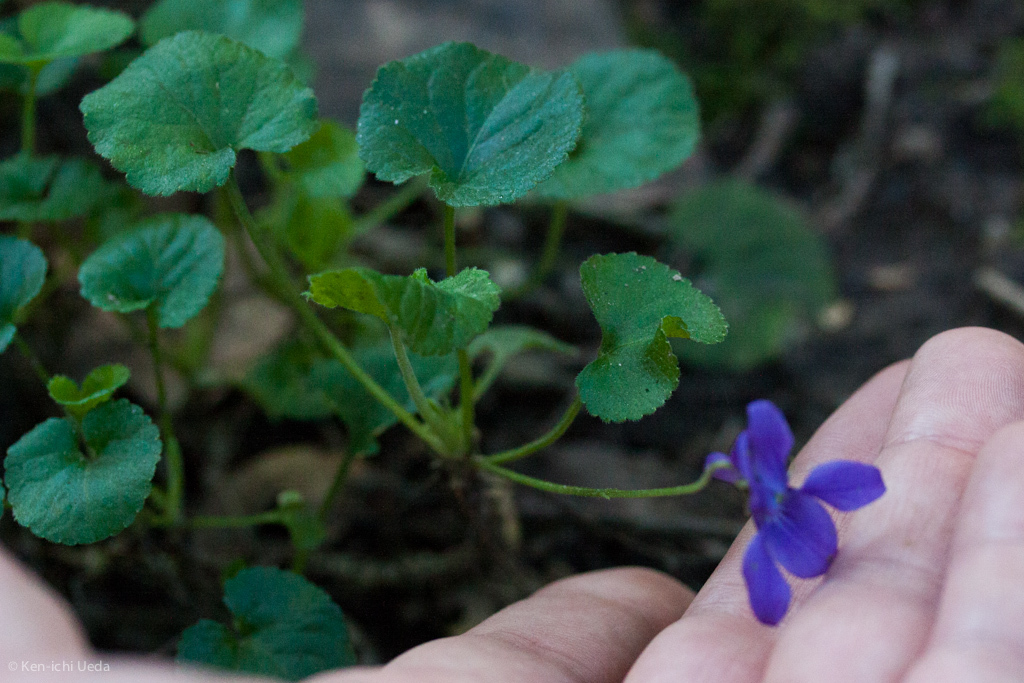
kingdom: Plantae
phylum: Tracheophyta
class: Magnoliopsida
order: Malpighiales
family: Violaceae
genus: Viola
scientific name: Viola odorata
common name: Sweet violet
